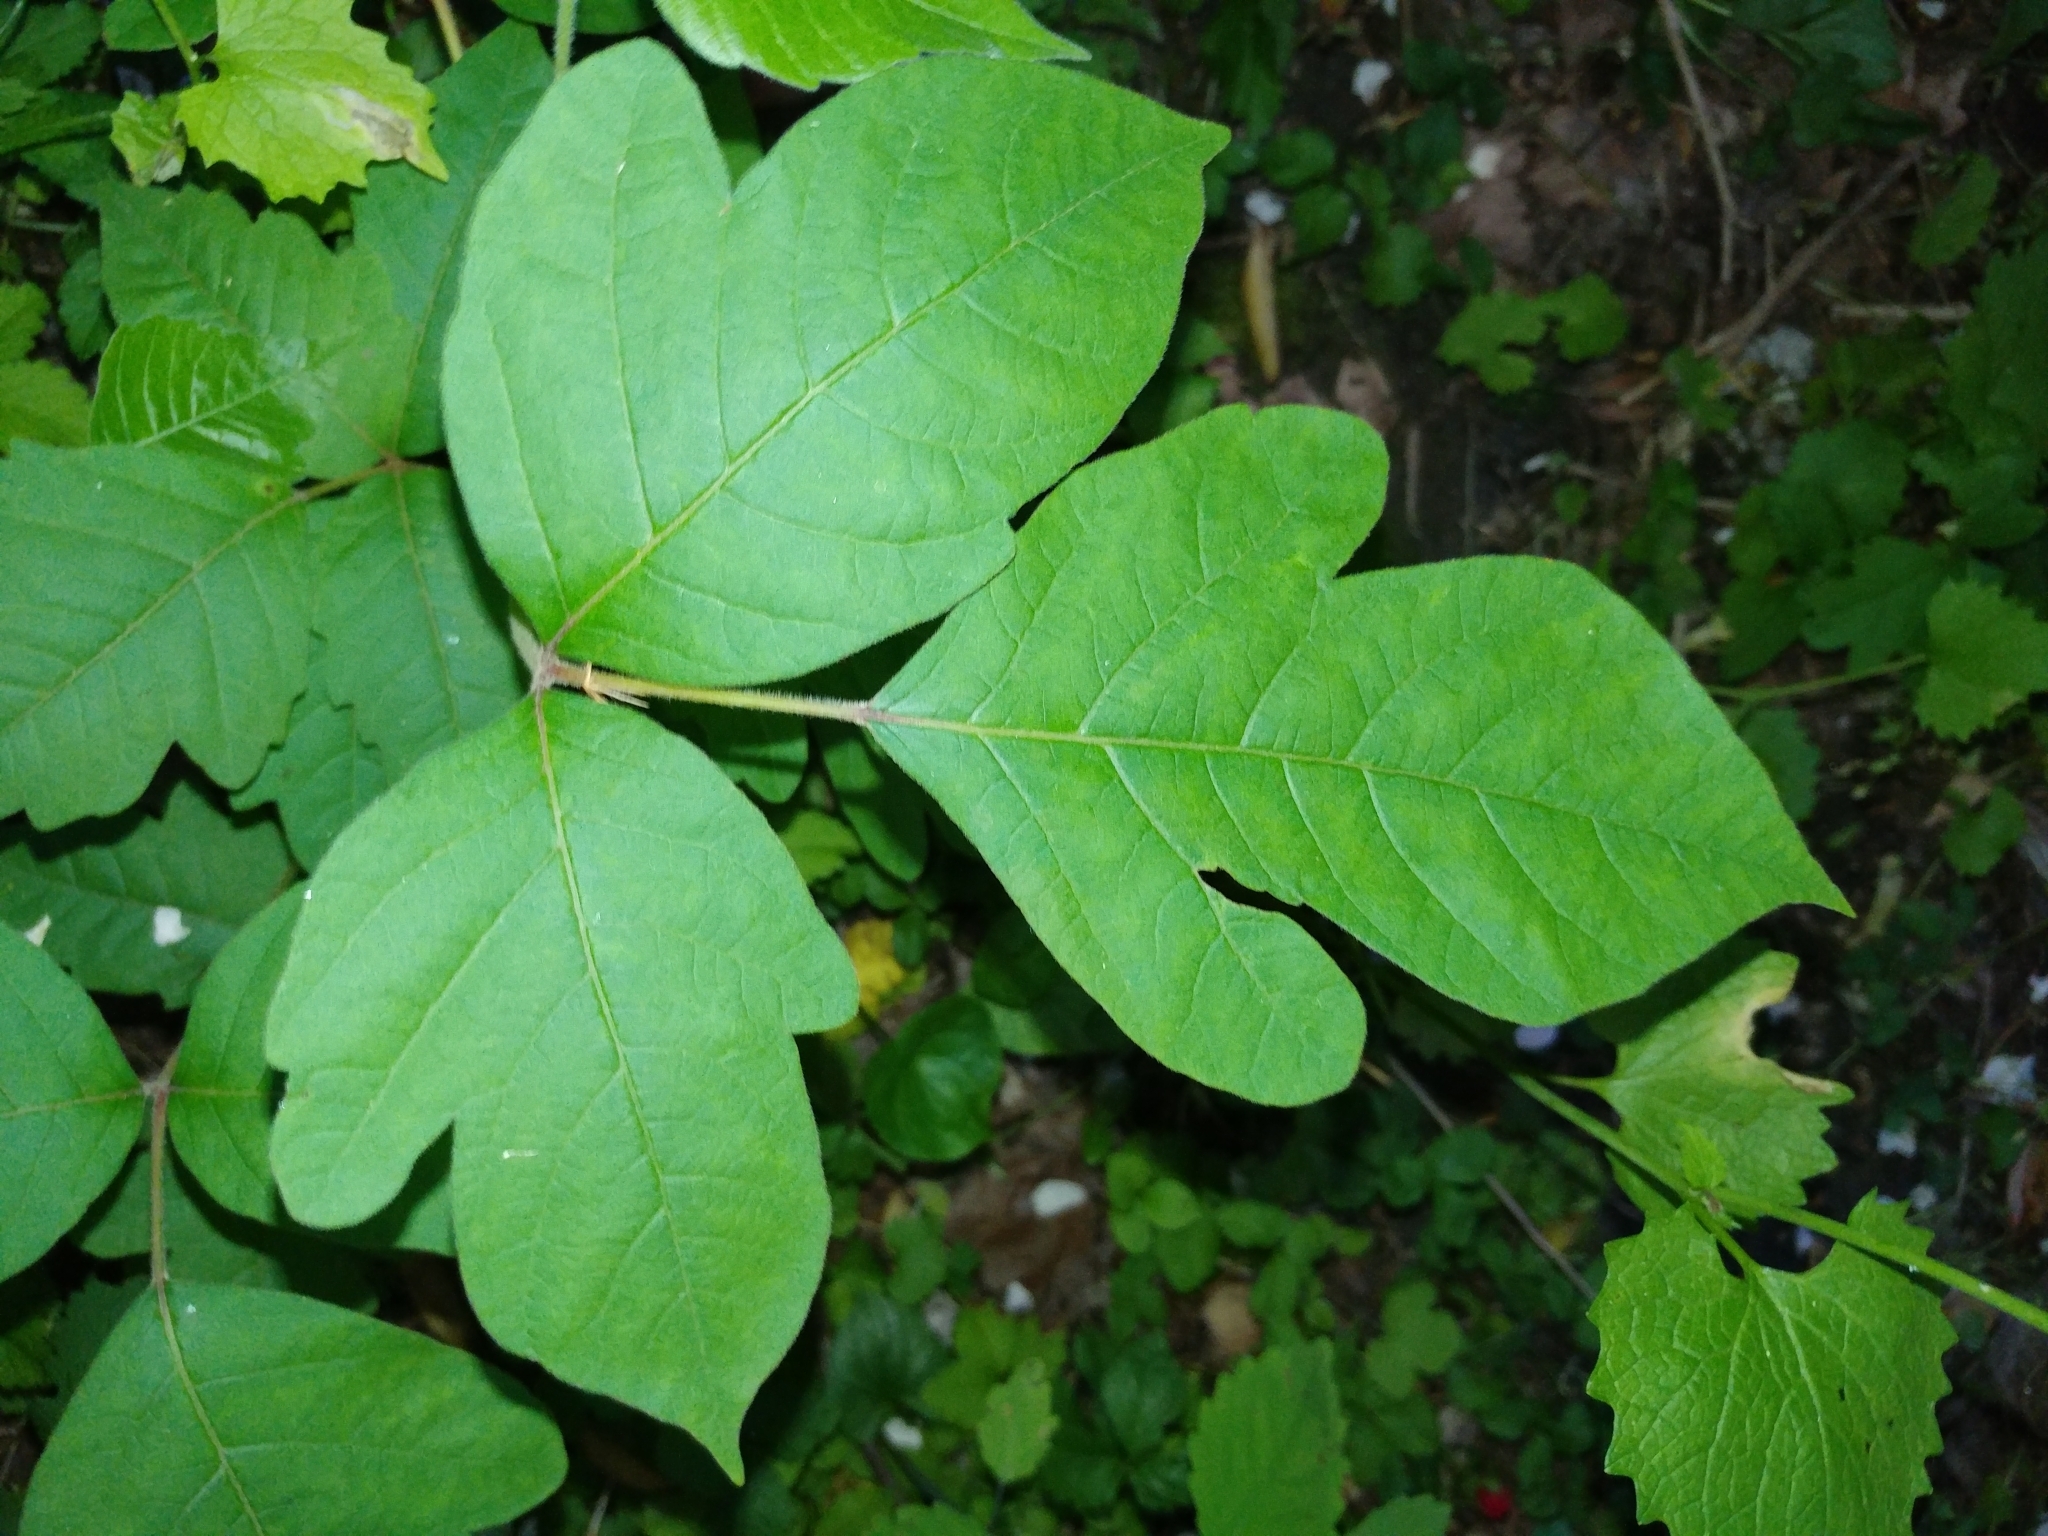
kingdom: Plantae
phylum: Tracheophyta
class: Magnoliopsida
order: Sapindales
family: Anacardiaceae
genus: Toxicodendron
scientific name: Toxicodendron radicans
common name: Poison ivy
